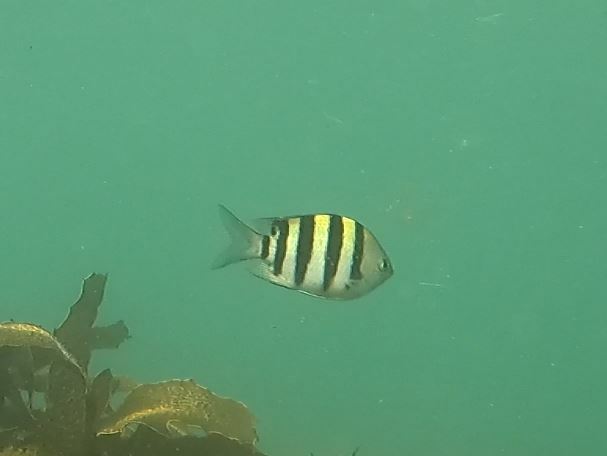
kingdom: Animalia
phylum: Chordata
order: Perciformes
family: Pomacentridae
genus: Abudefduf
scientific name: Abudefduf vaigiensis
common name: Indo-pacific sergeant
